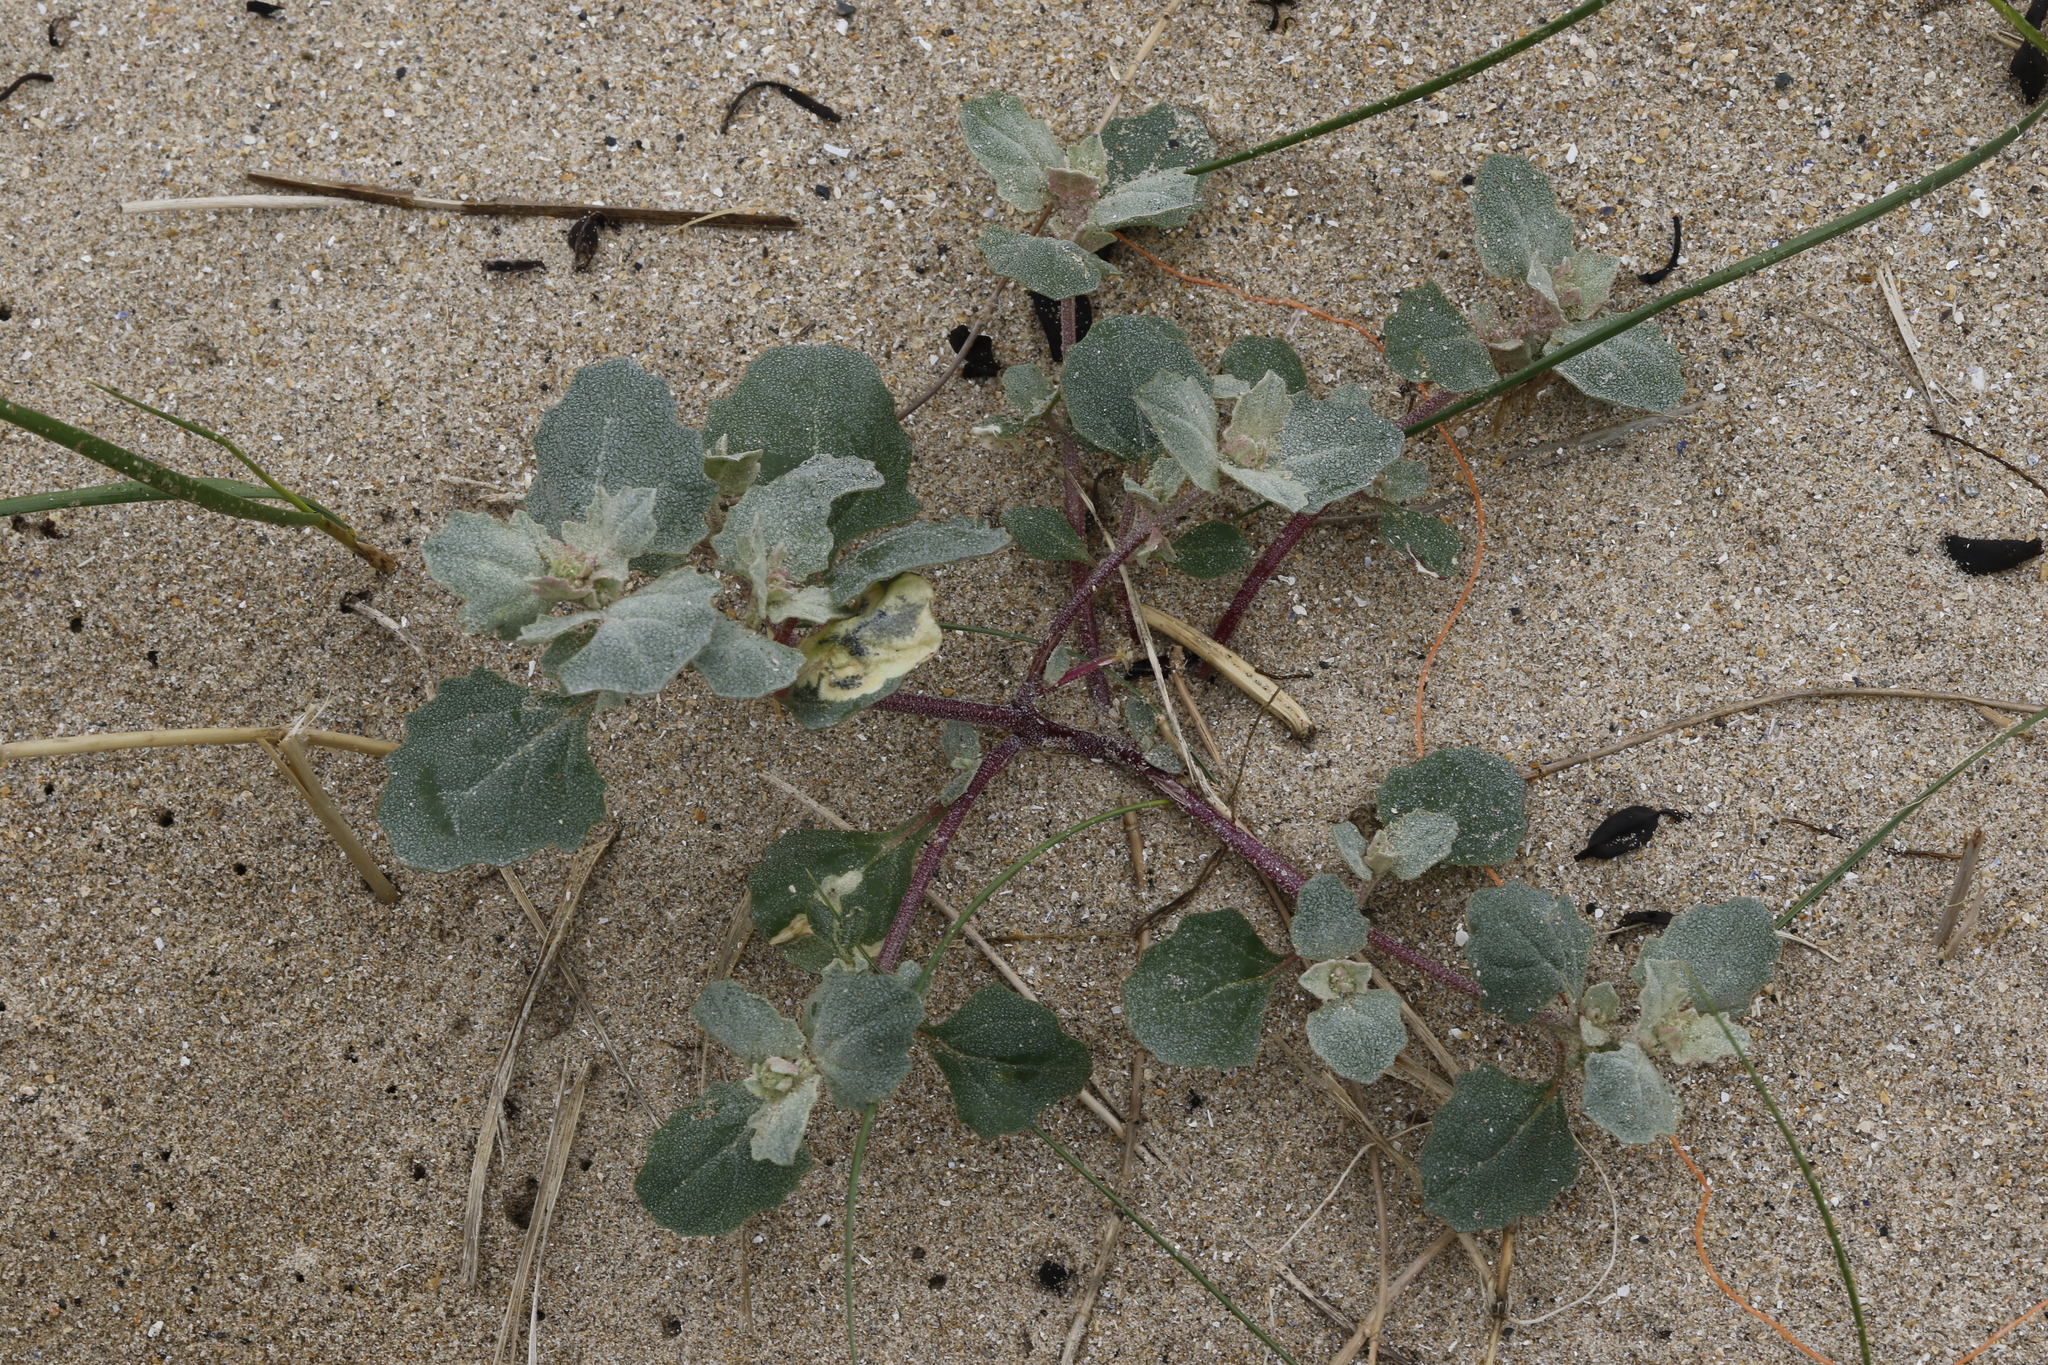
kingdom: Plantae
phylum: Tracheophyta
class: Magnoliopsida
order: Caryophyllales
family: Amaranthaceae
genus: Atriplex
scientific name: Atriplex laciniata
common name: Frosted orache
